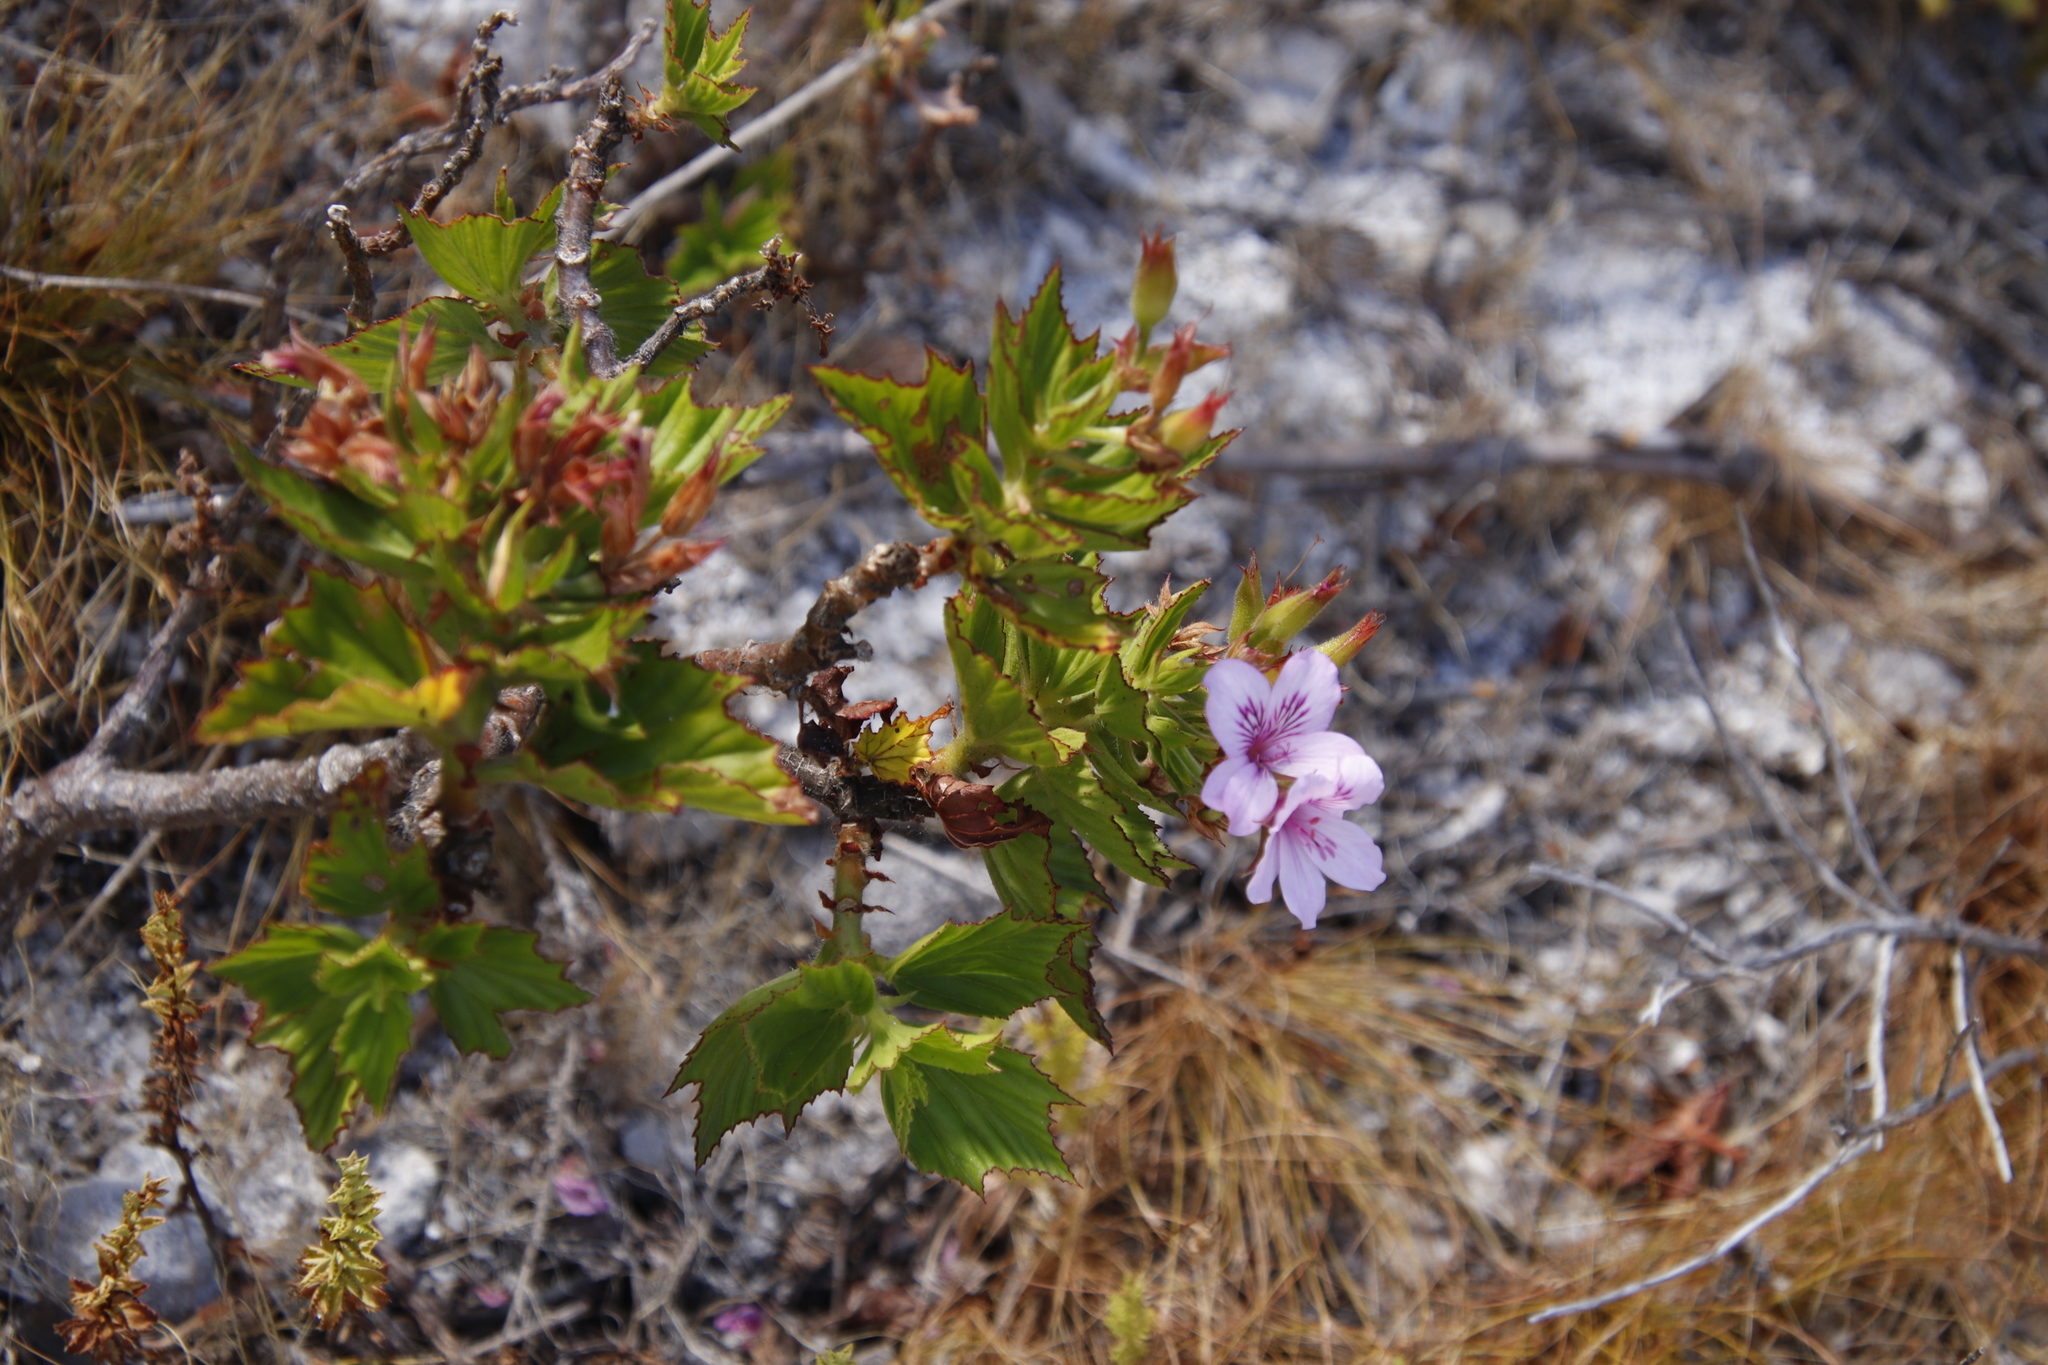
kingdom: Plantae
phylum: Tracheophyta
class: Magnoliopsida
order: Geraniales
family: Geraniaceae
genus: Pelargonium
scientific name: Pelargonium cucullatum
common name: Tree pelargonium
